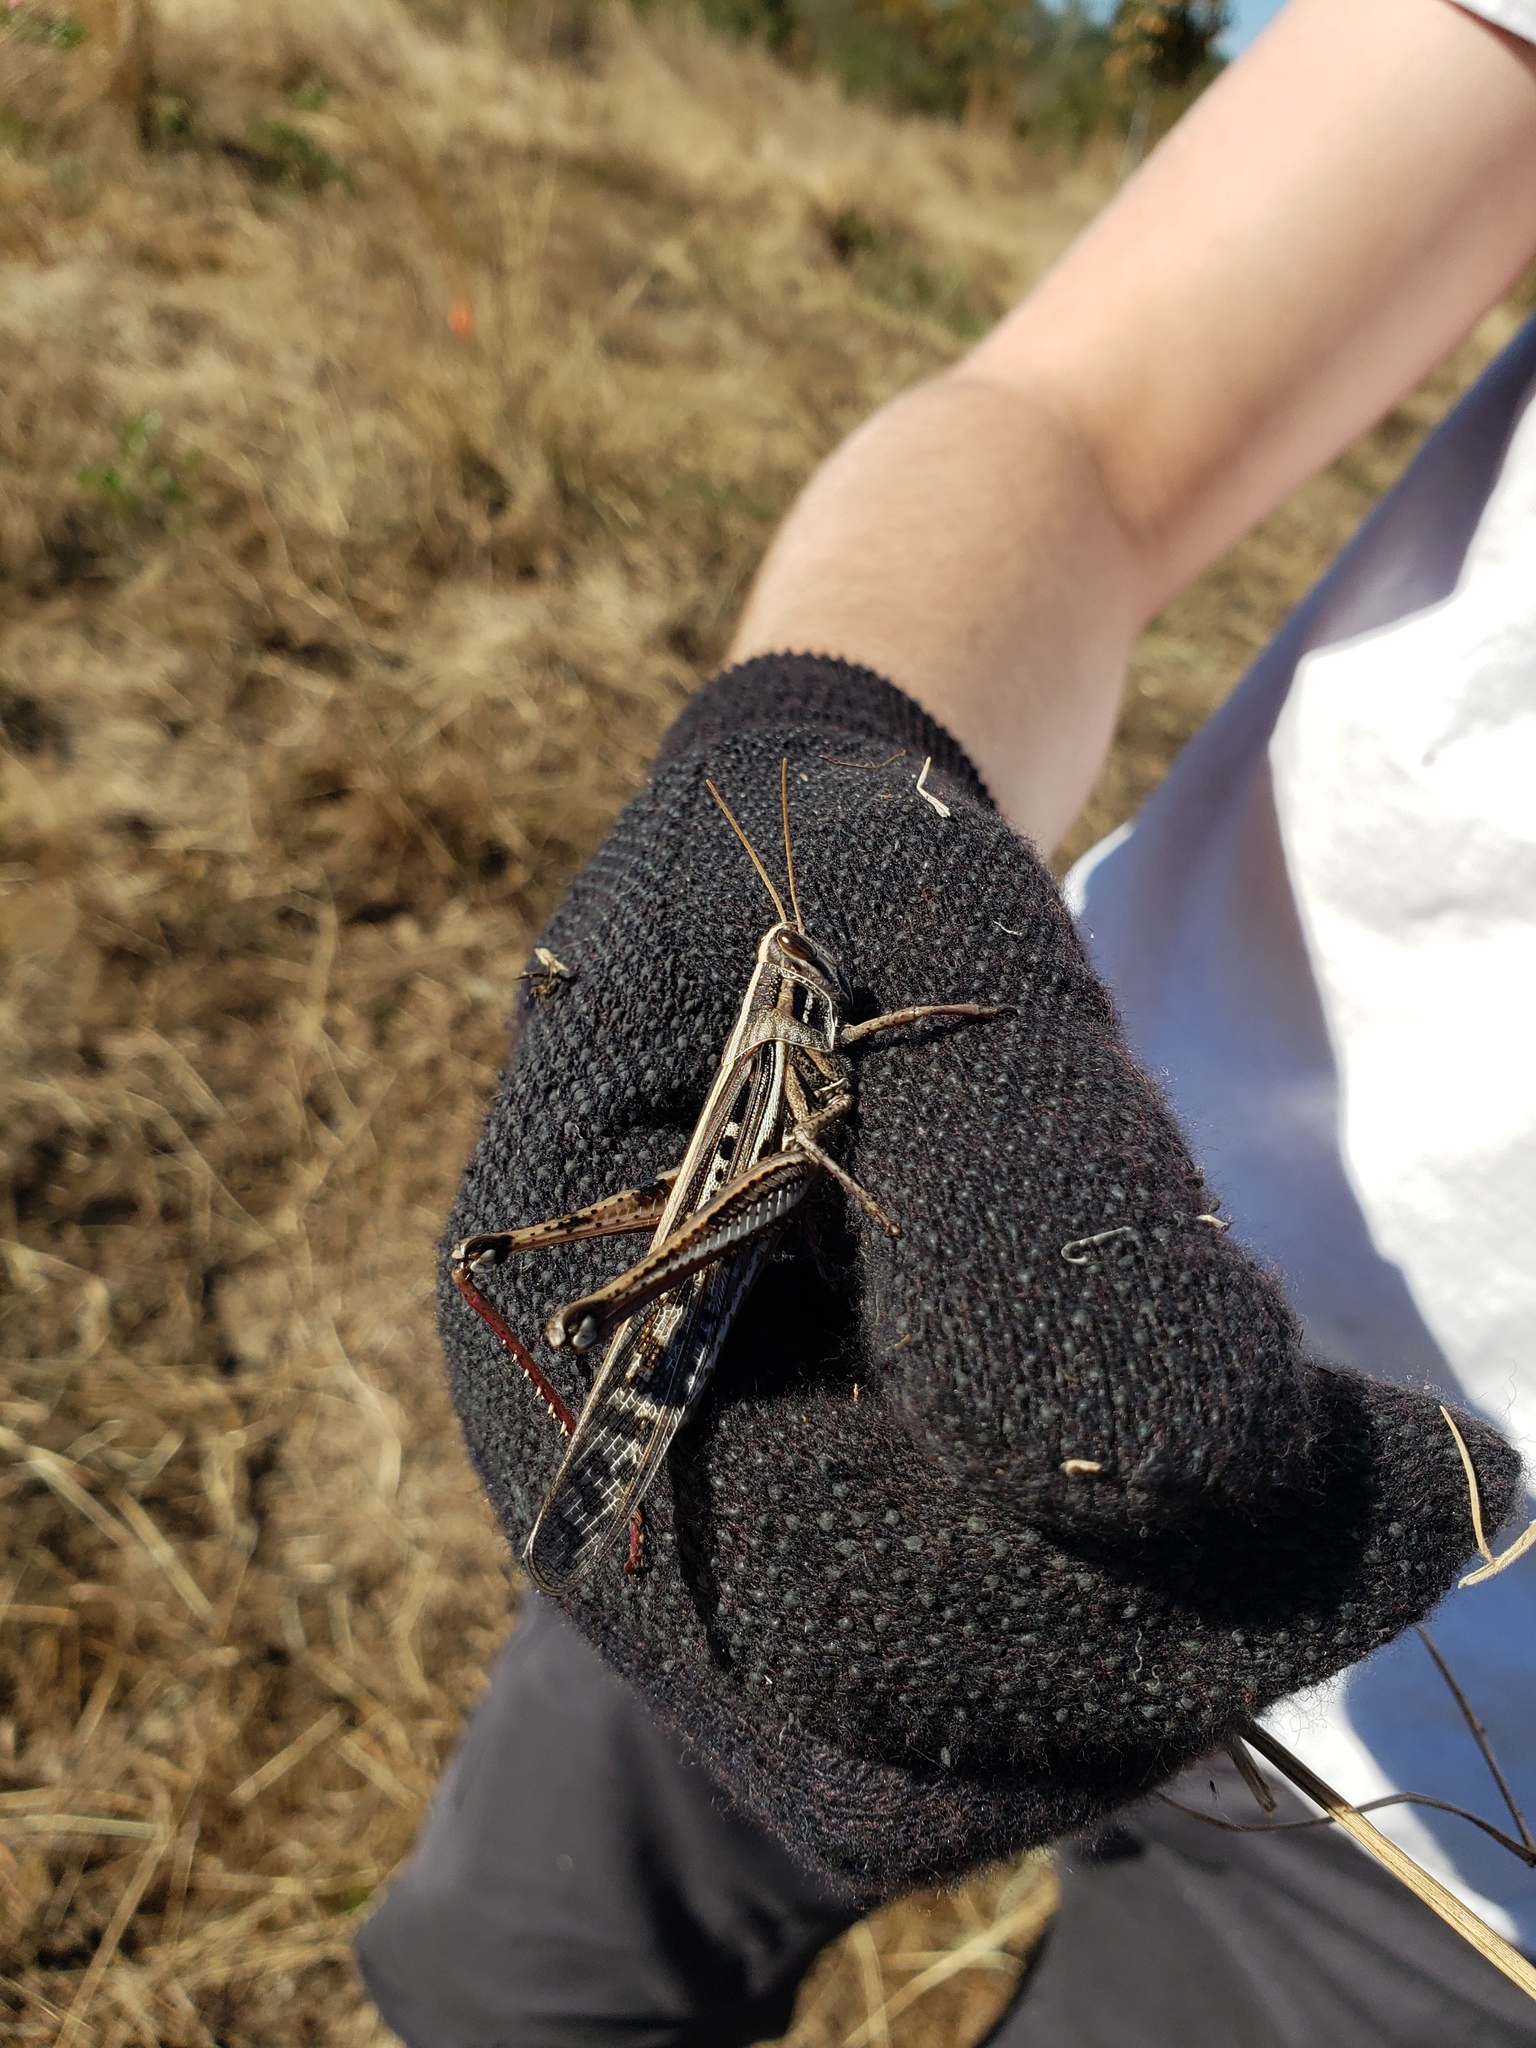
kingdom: Animalia
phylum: Arthropoda
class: Insecta
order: Orthoptera
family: Acrididae
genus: Schistocerca
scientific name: Schistocerca americana
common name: American bird locust
